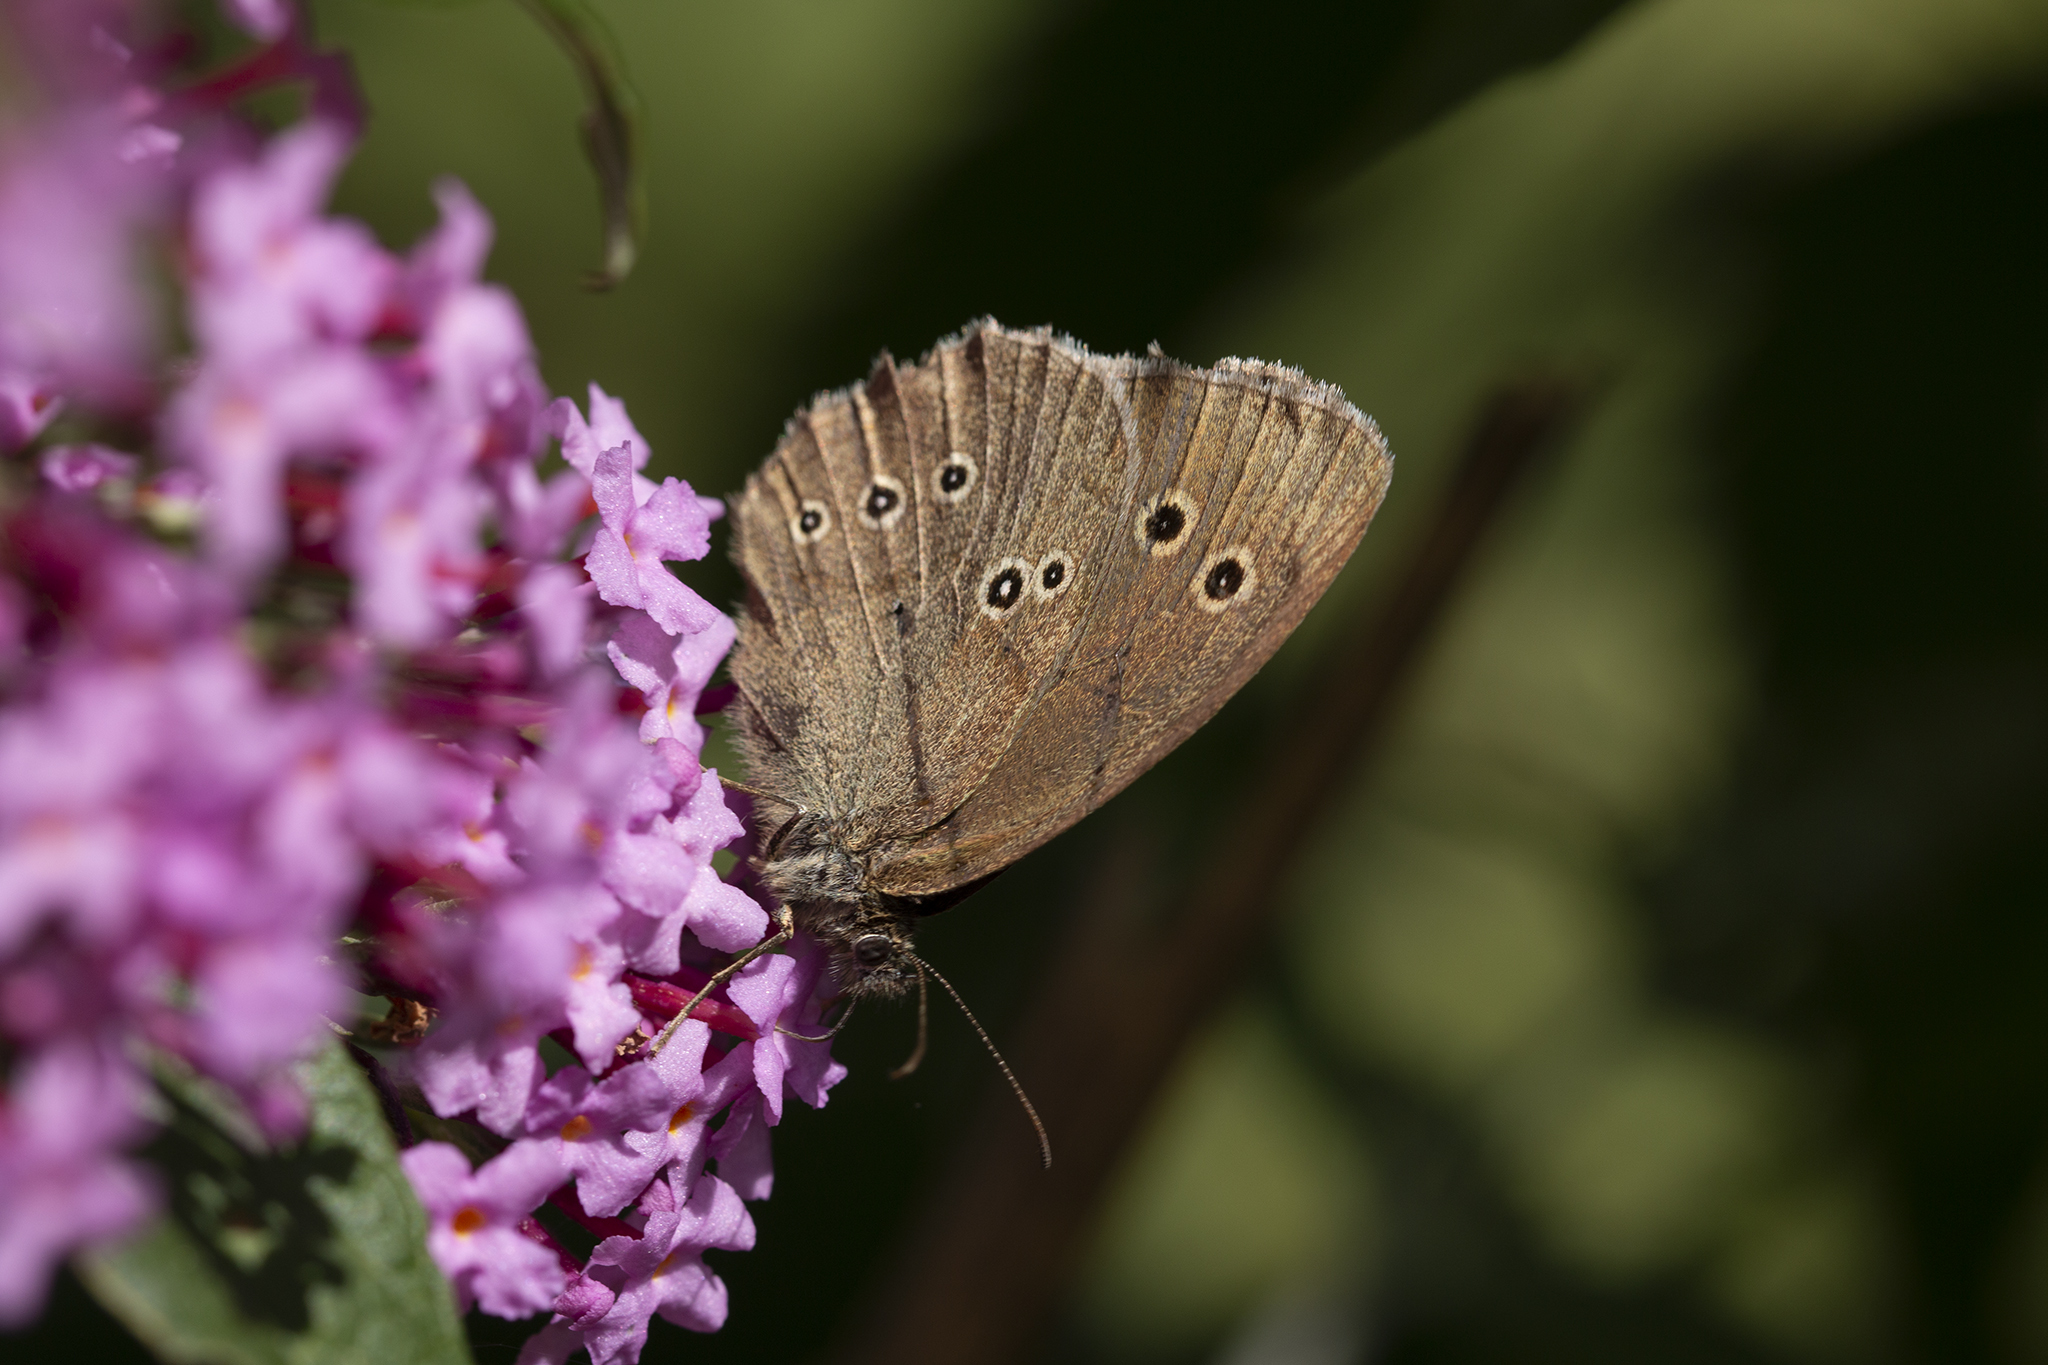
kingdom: Animalia
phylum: Arthropoda
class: Insecta
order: Lepidoptera
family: Nymphalidae
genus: Aphantopus
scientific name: Aphantopus hyperantus
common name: Ringlet
